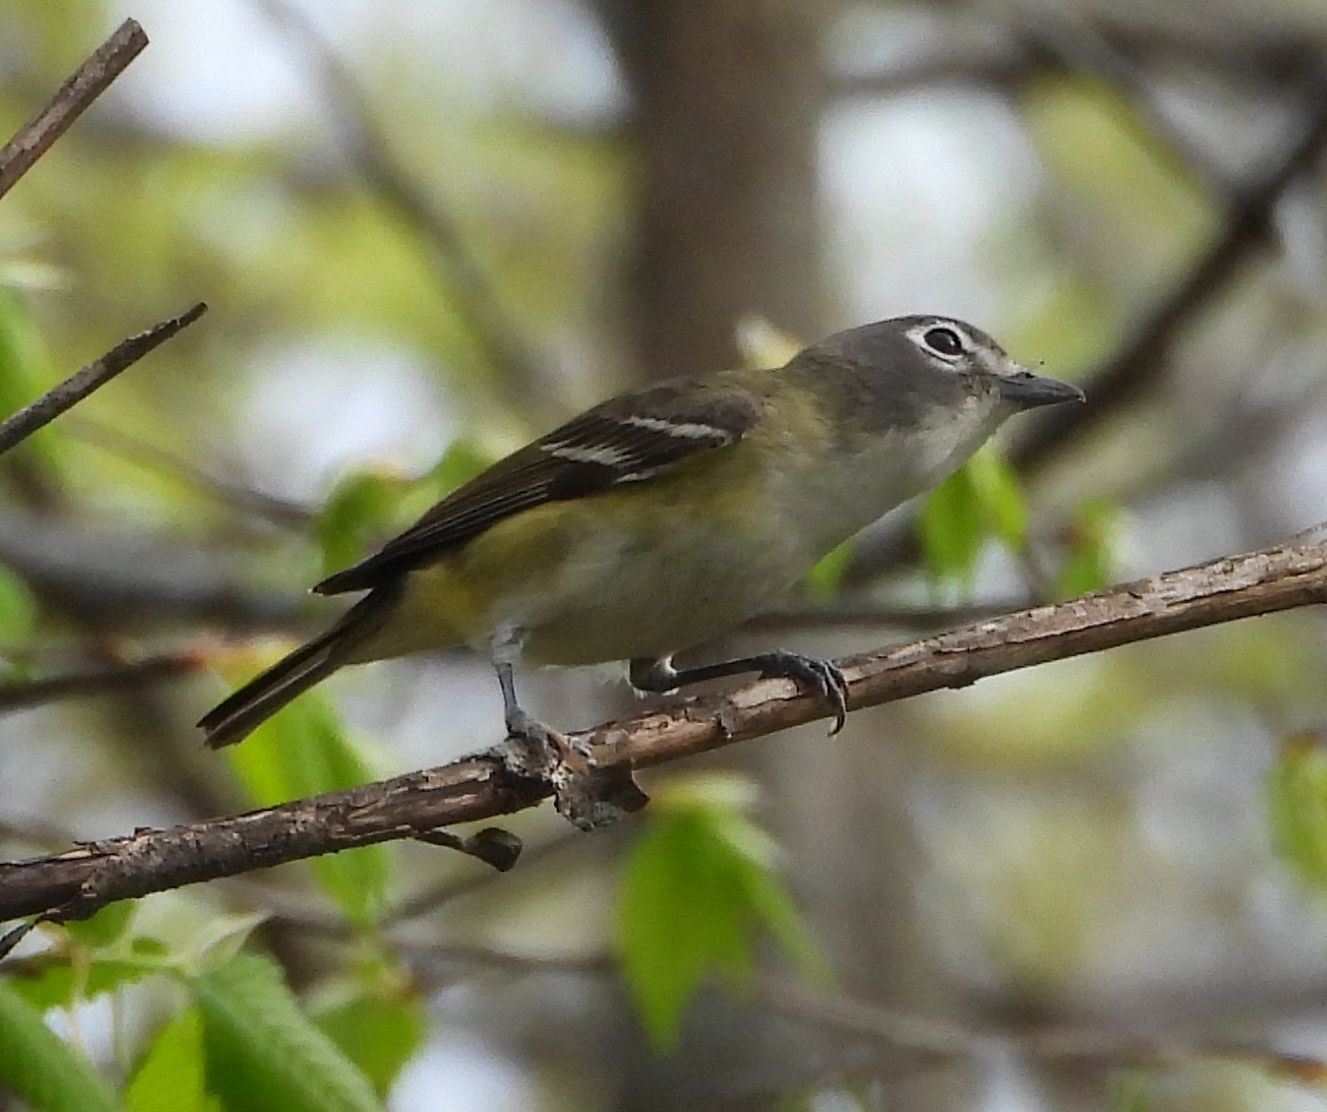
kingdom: Animalia
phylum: Chordata
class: Aves
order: Passeriformes
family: Vireonidae
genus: Vireo
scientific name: Vireo solitarius
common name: Blue-headed vireo
